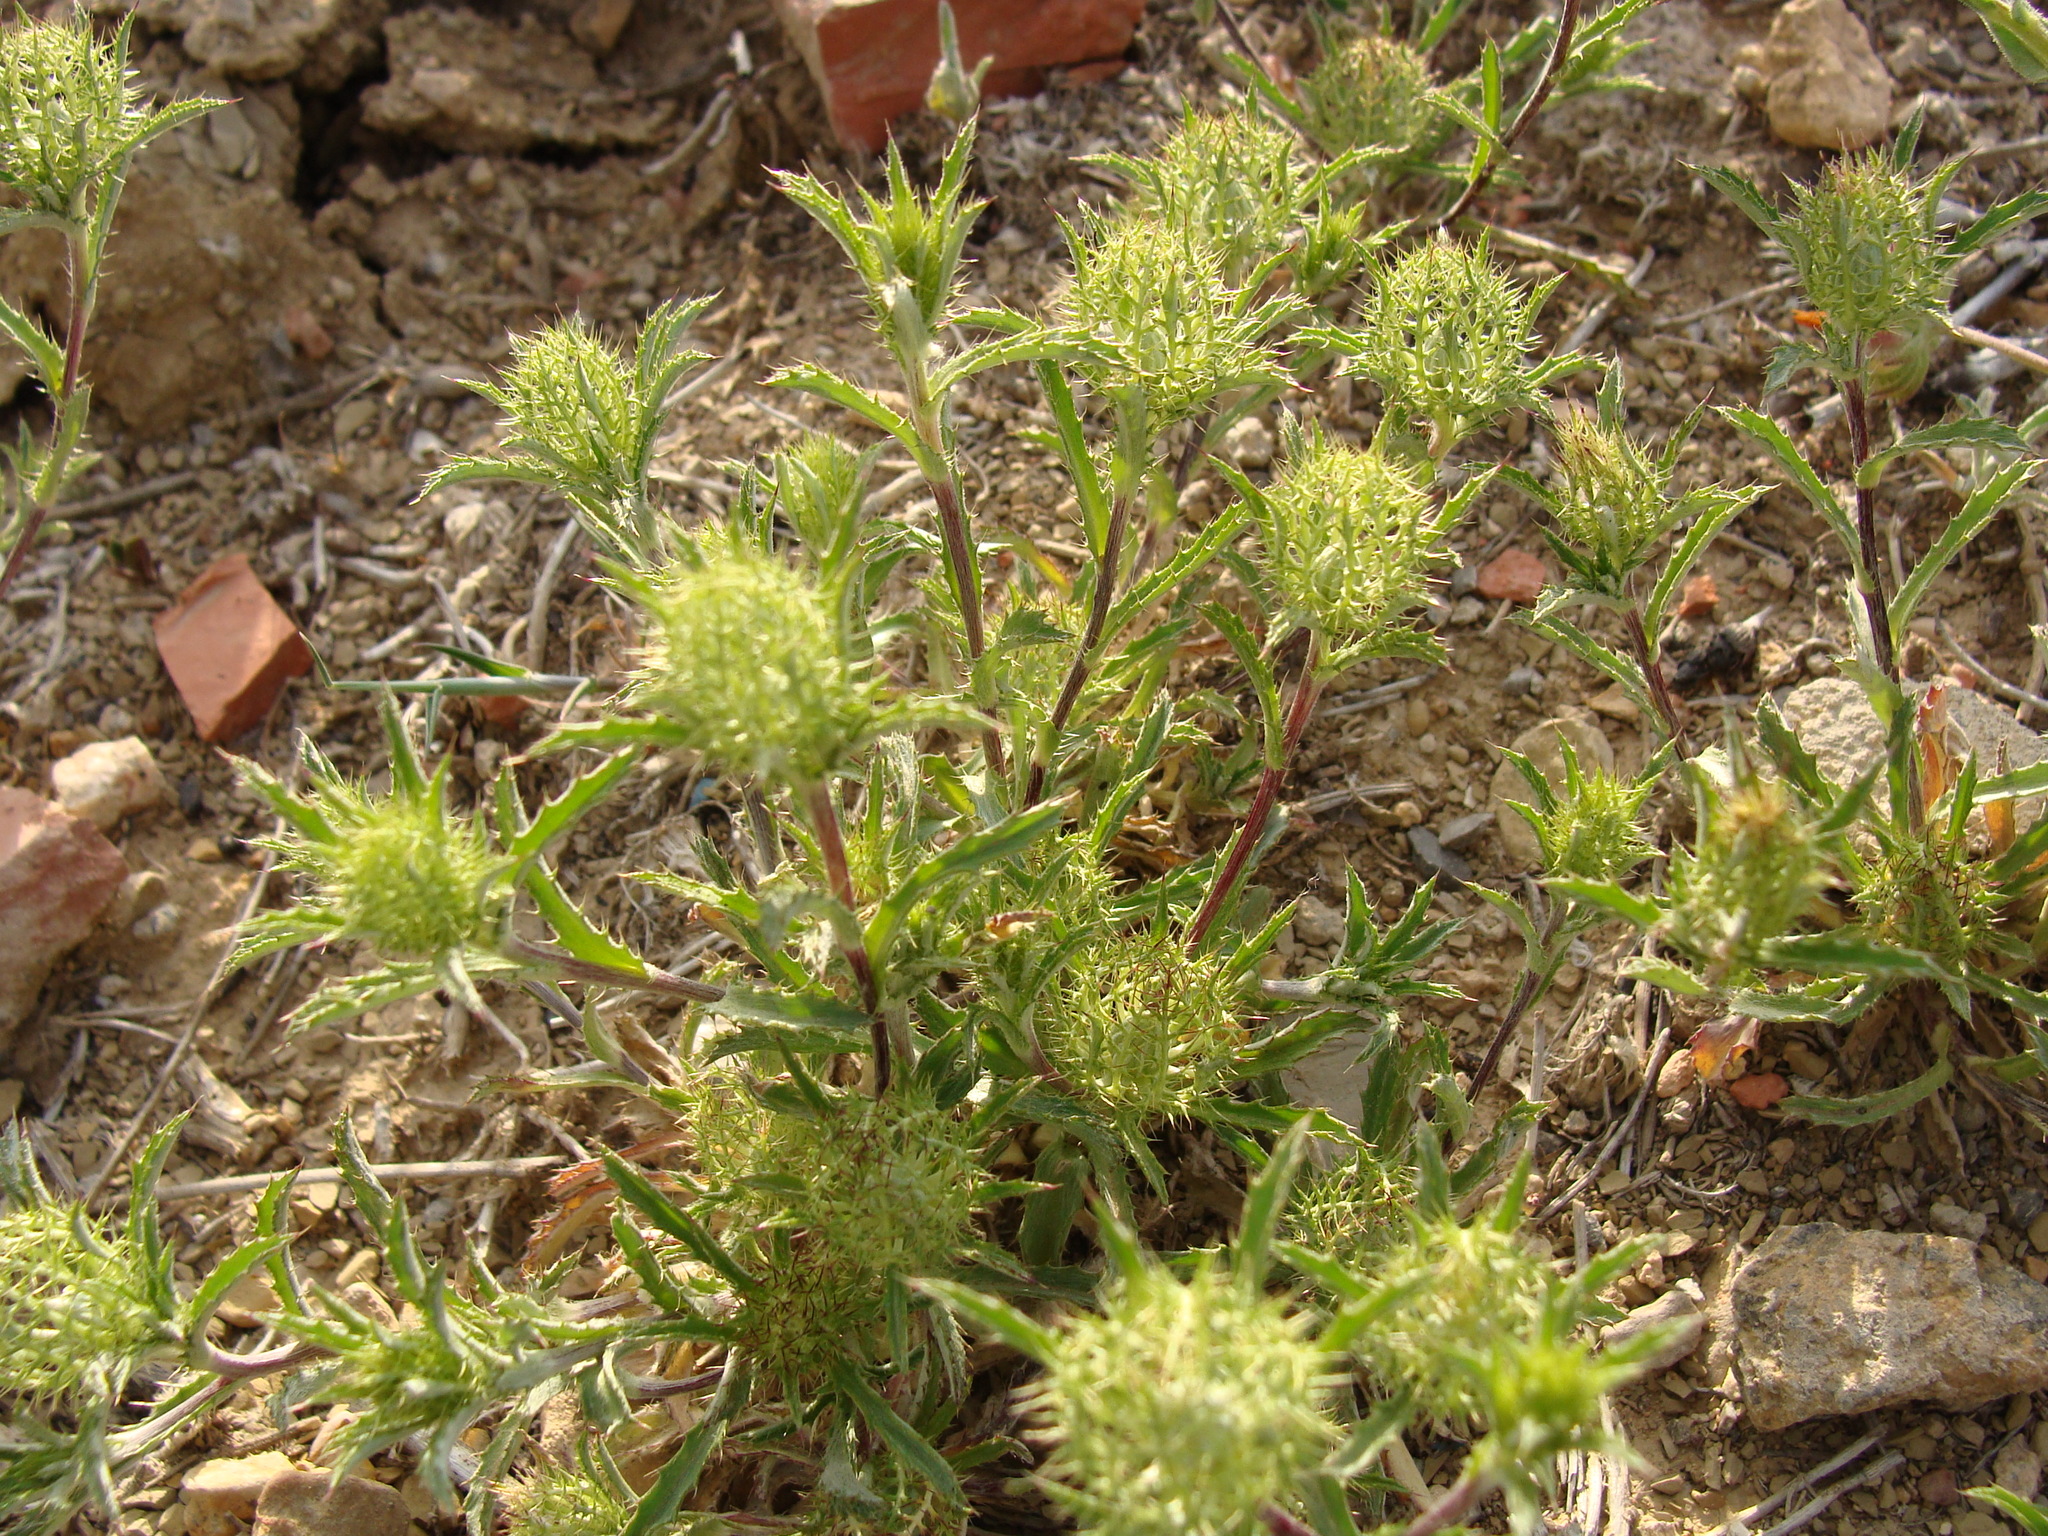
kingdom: Plantae
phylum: Tracheophyta
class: Magnoliopsida
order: Asterales
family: Asteraceae
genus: Atractylis
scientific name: Atractylis cancellata
